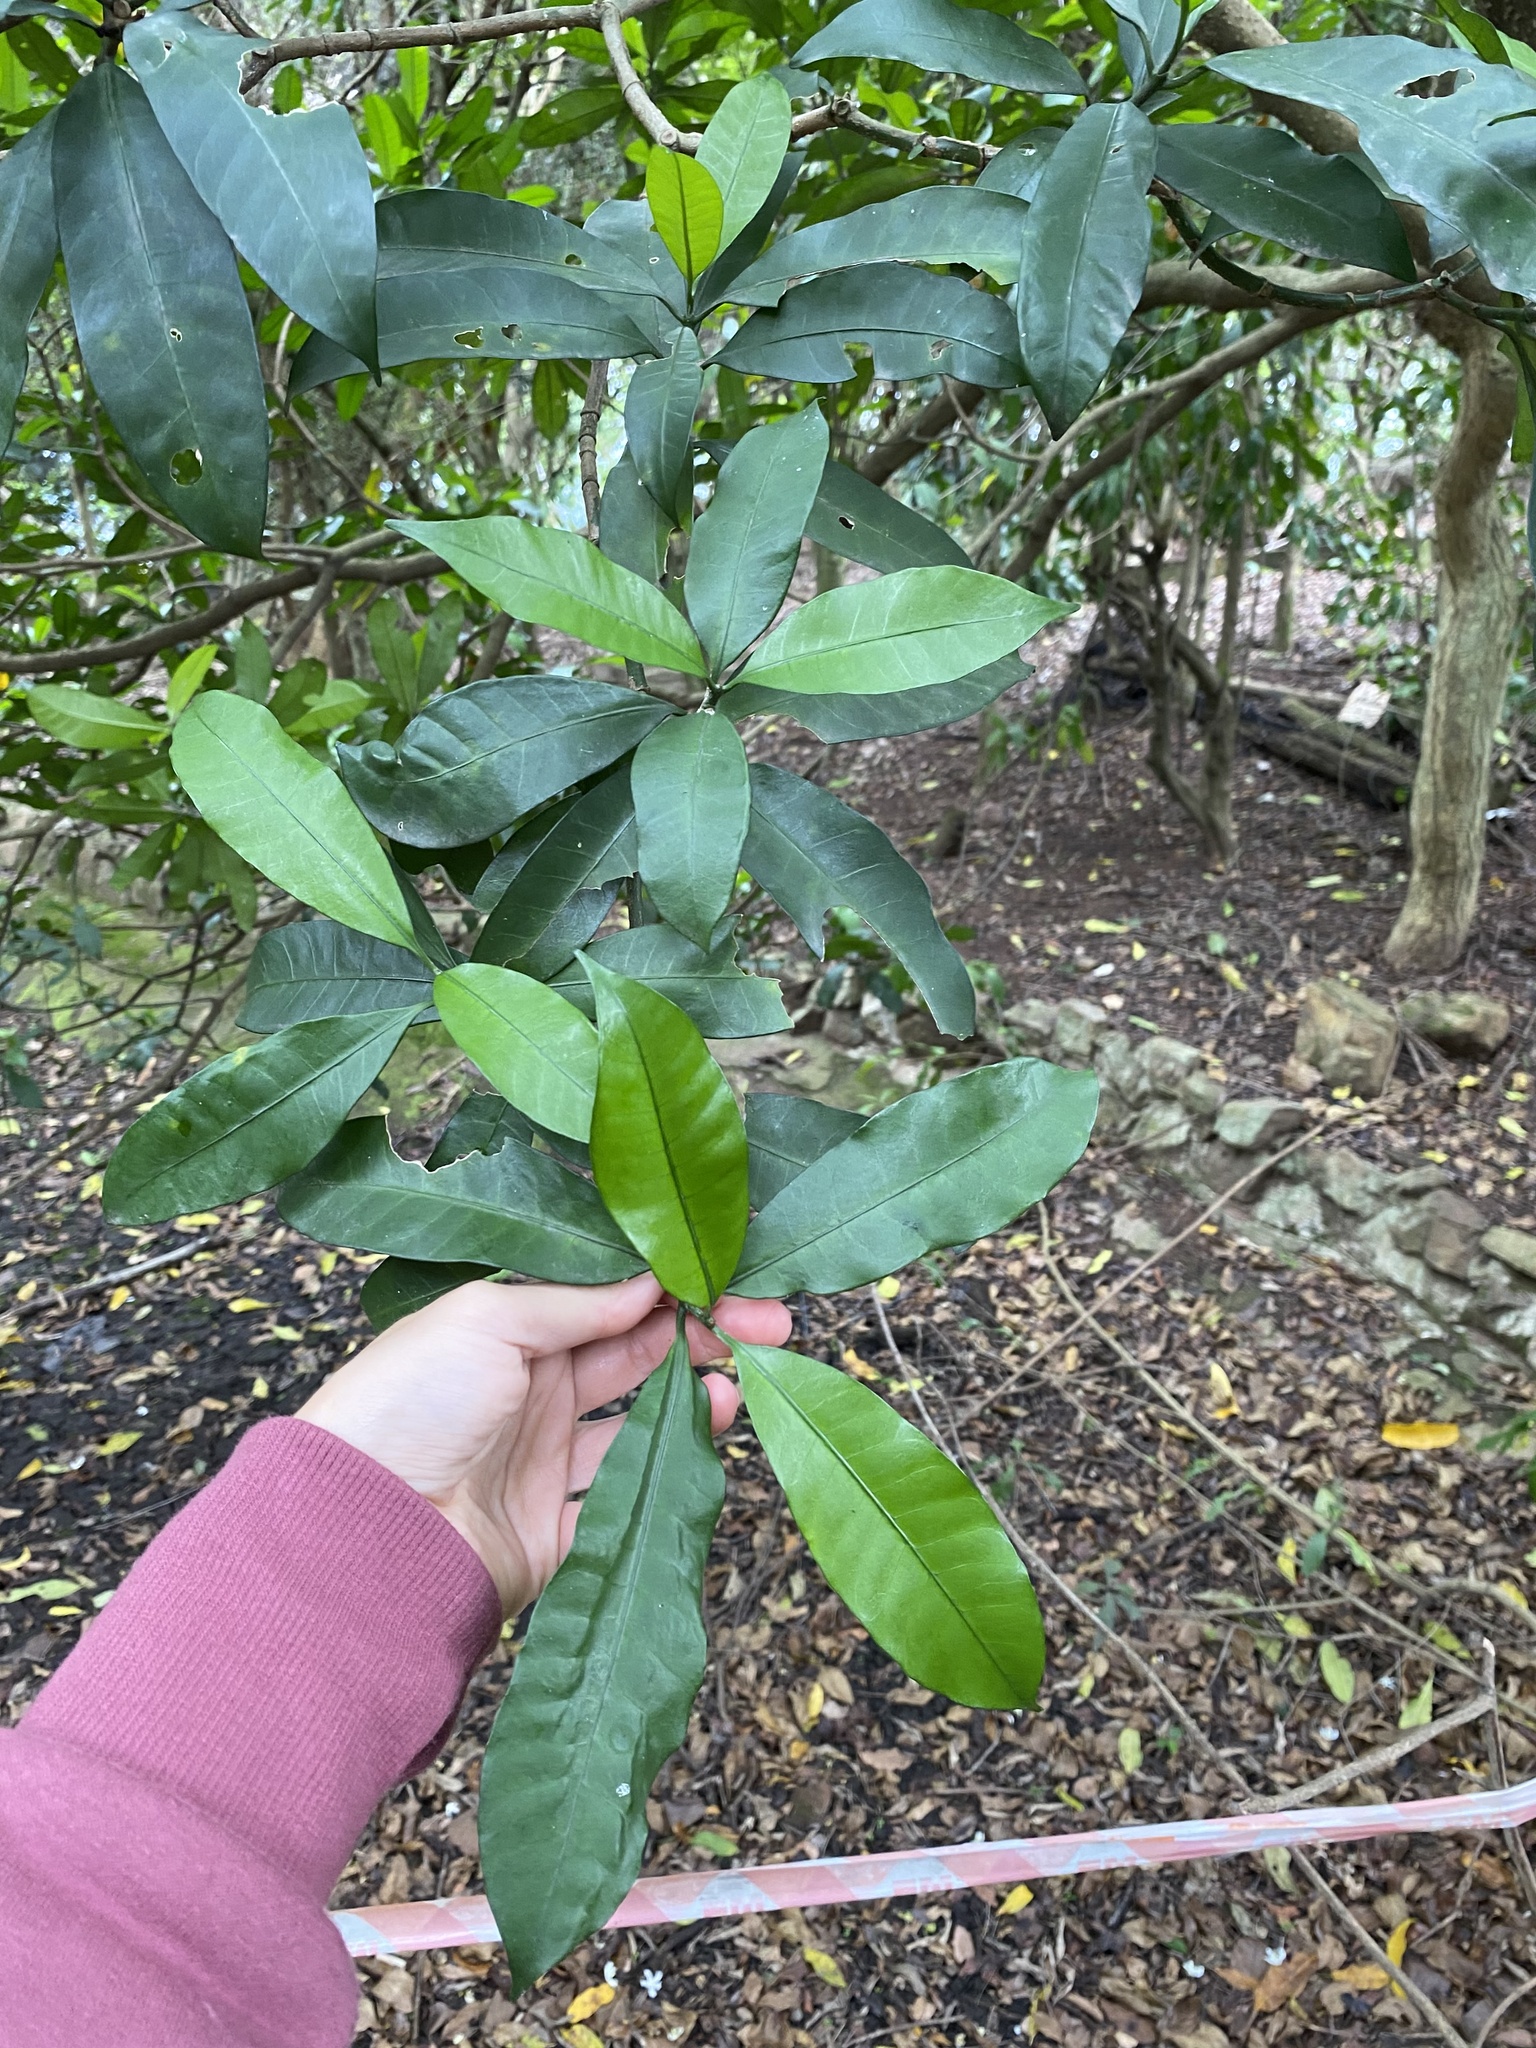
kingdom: Plantae
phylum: Tracheophyta
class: Magnoliopsida
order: Gentianales
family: Apocynaceae
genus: Tabernaemontana
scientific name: Tabernaemontana ventricosa
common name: Forest toad-tree
